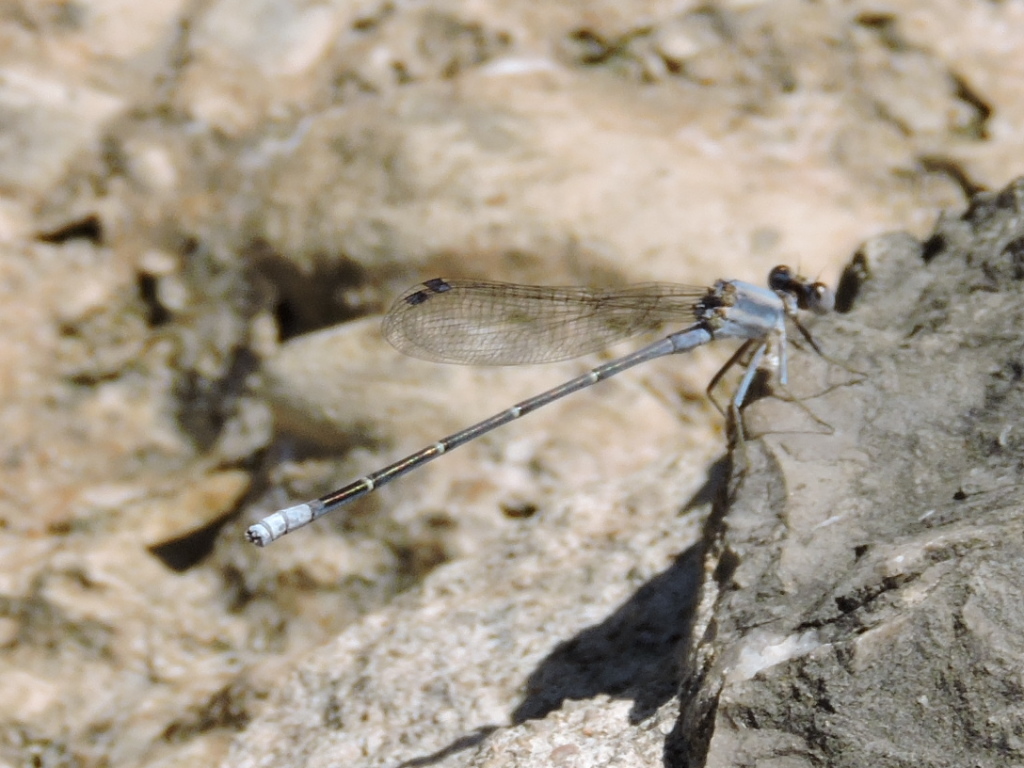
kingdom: Animalia
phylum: Arthropoda
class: Insecta
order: Odonata
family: Coenagrionidae
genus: Argia
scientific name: Argia moesta
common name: Powdered dancer
